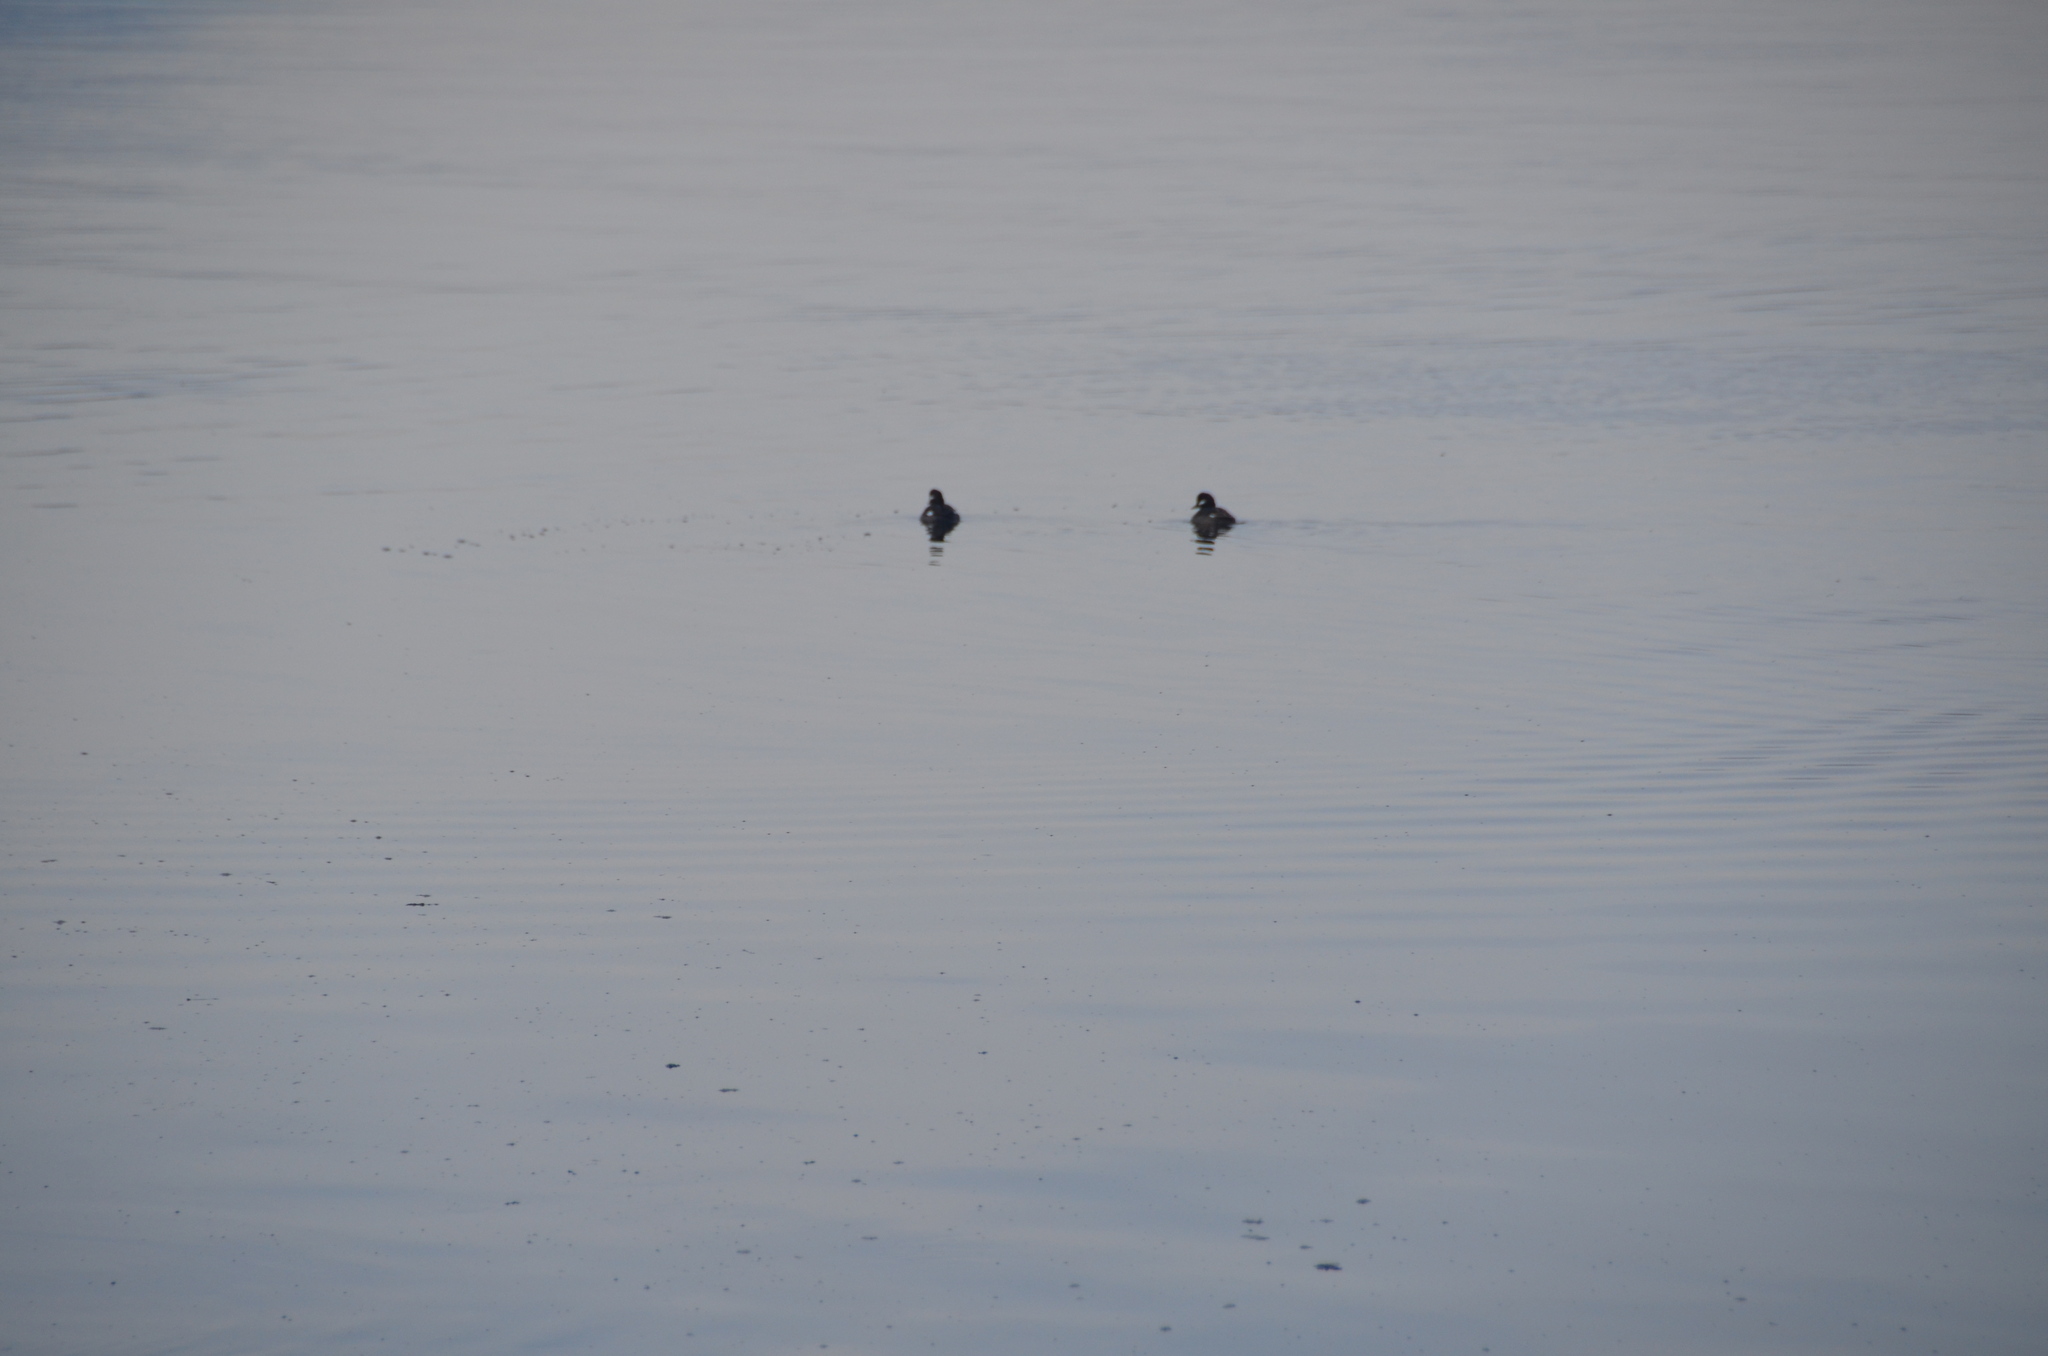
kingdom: Animalia
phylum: Chordata
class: Aves
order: Anseriformes
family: Anatidae
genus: Bucephala
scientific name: Bucephala albeola
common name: Bufflehead
